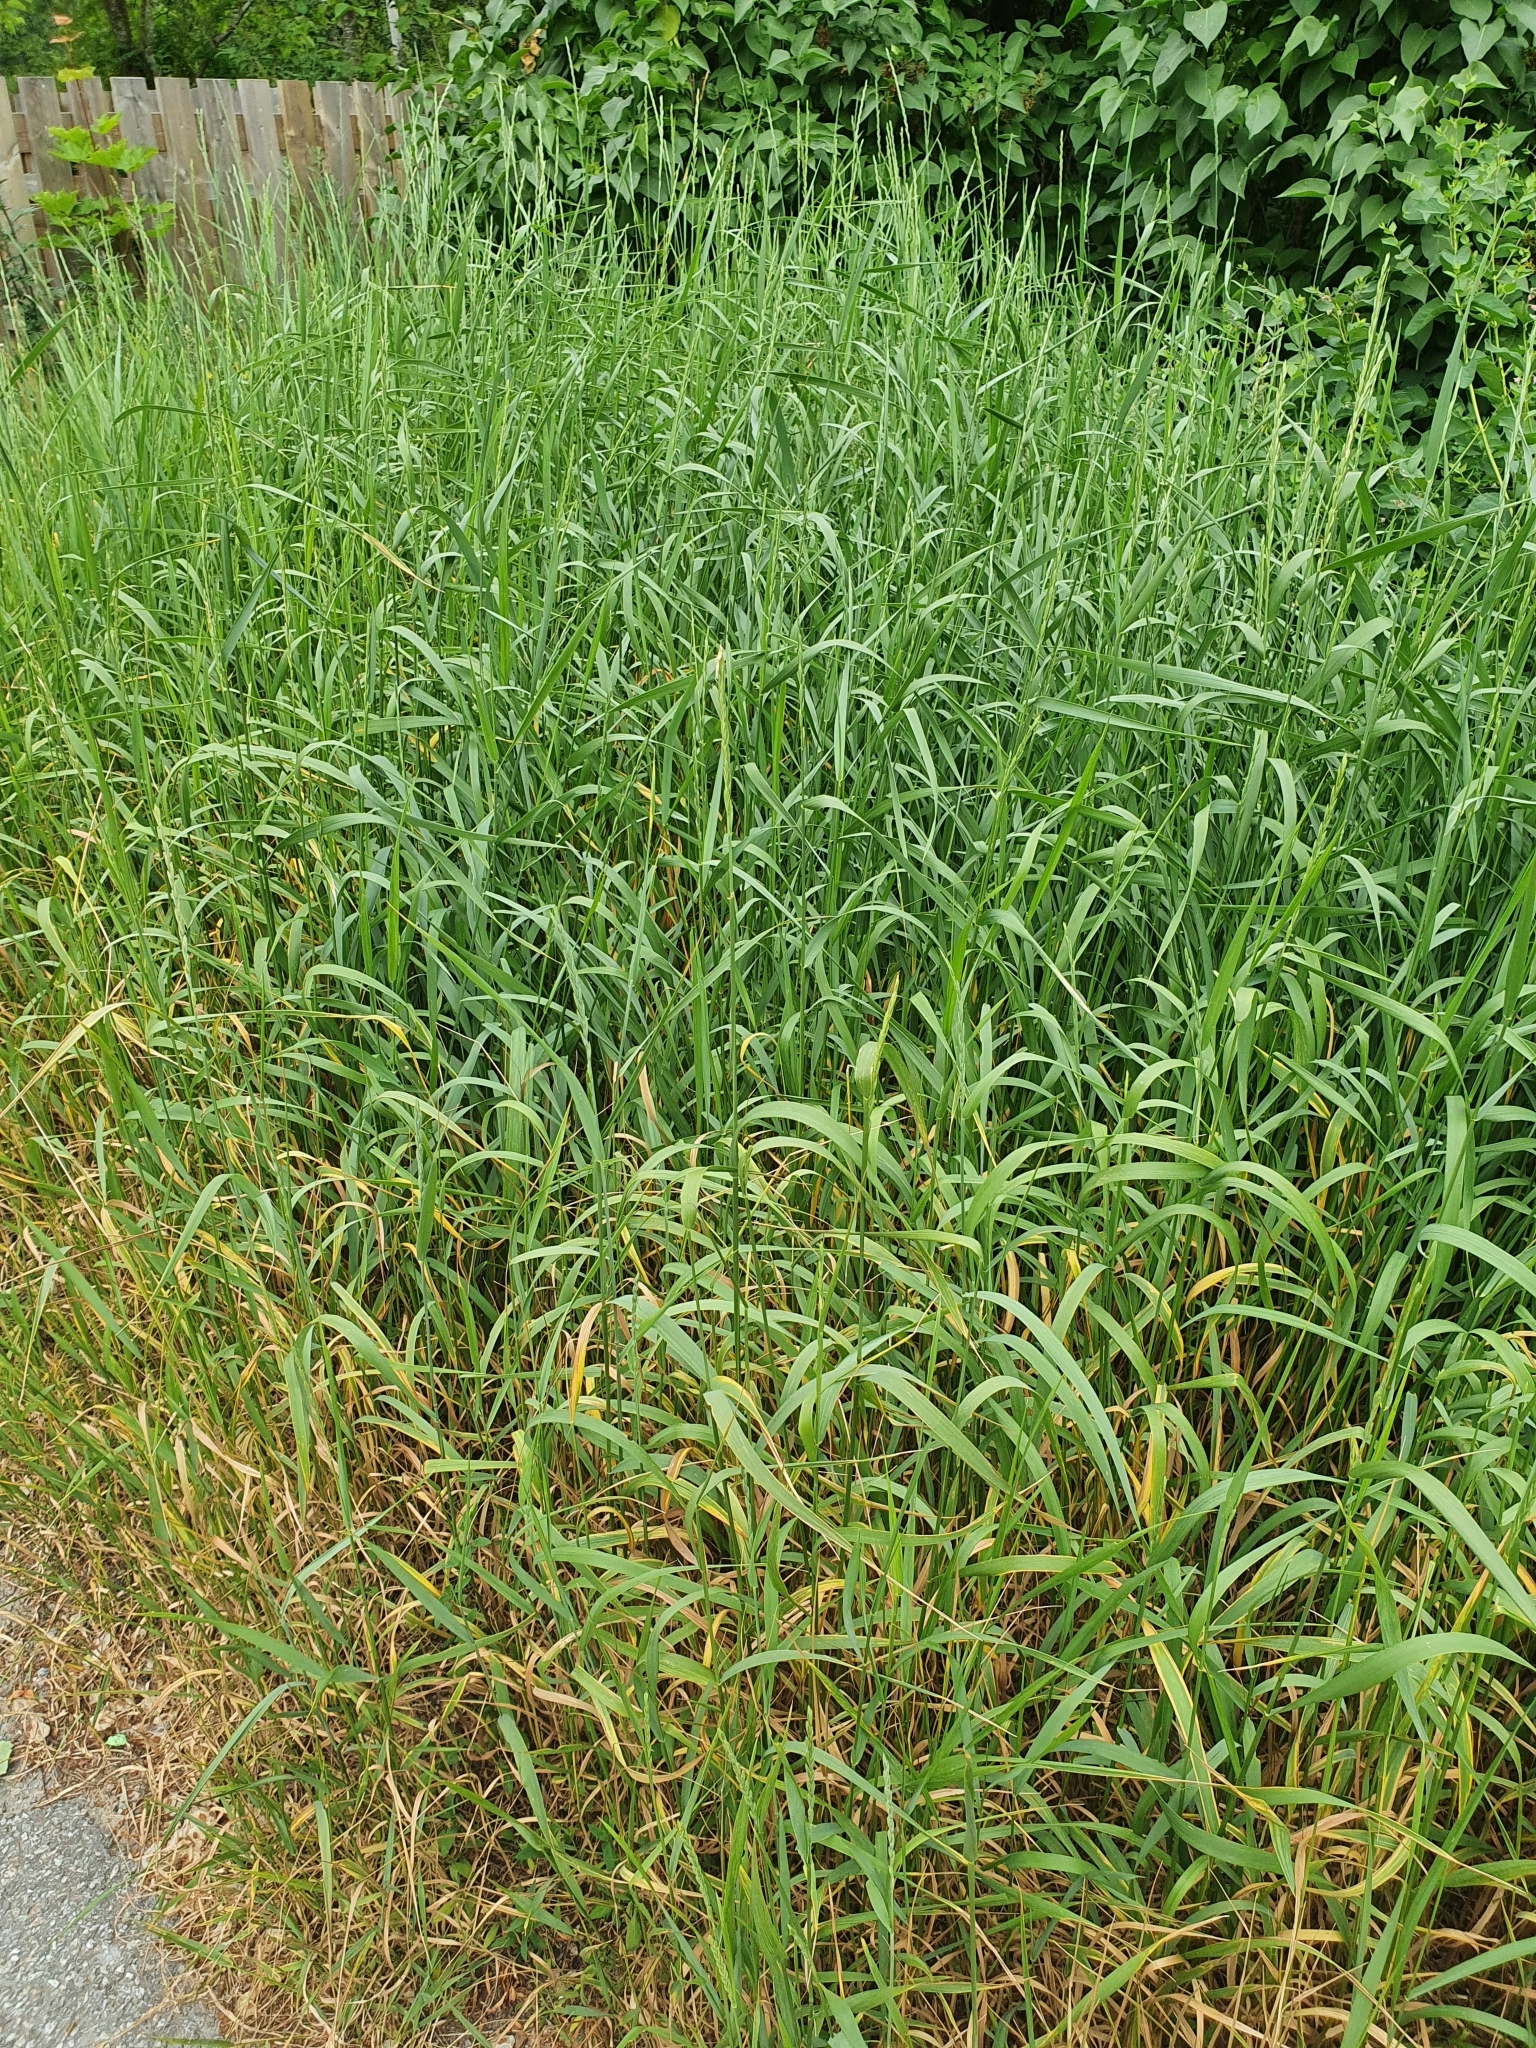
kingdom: Plantae
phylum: Tracheophyta
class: Liliopsida
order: Poales
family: Poaceae
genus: Elymus
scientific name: Elymus repens
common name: Quackgrass
